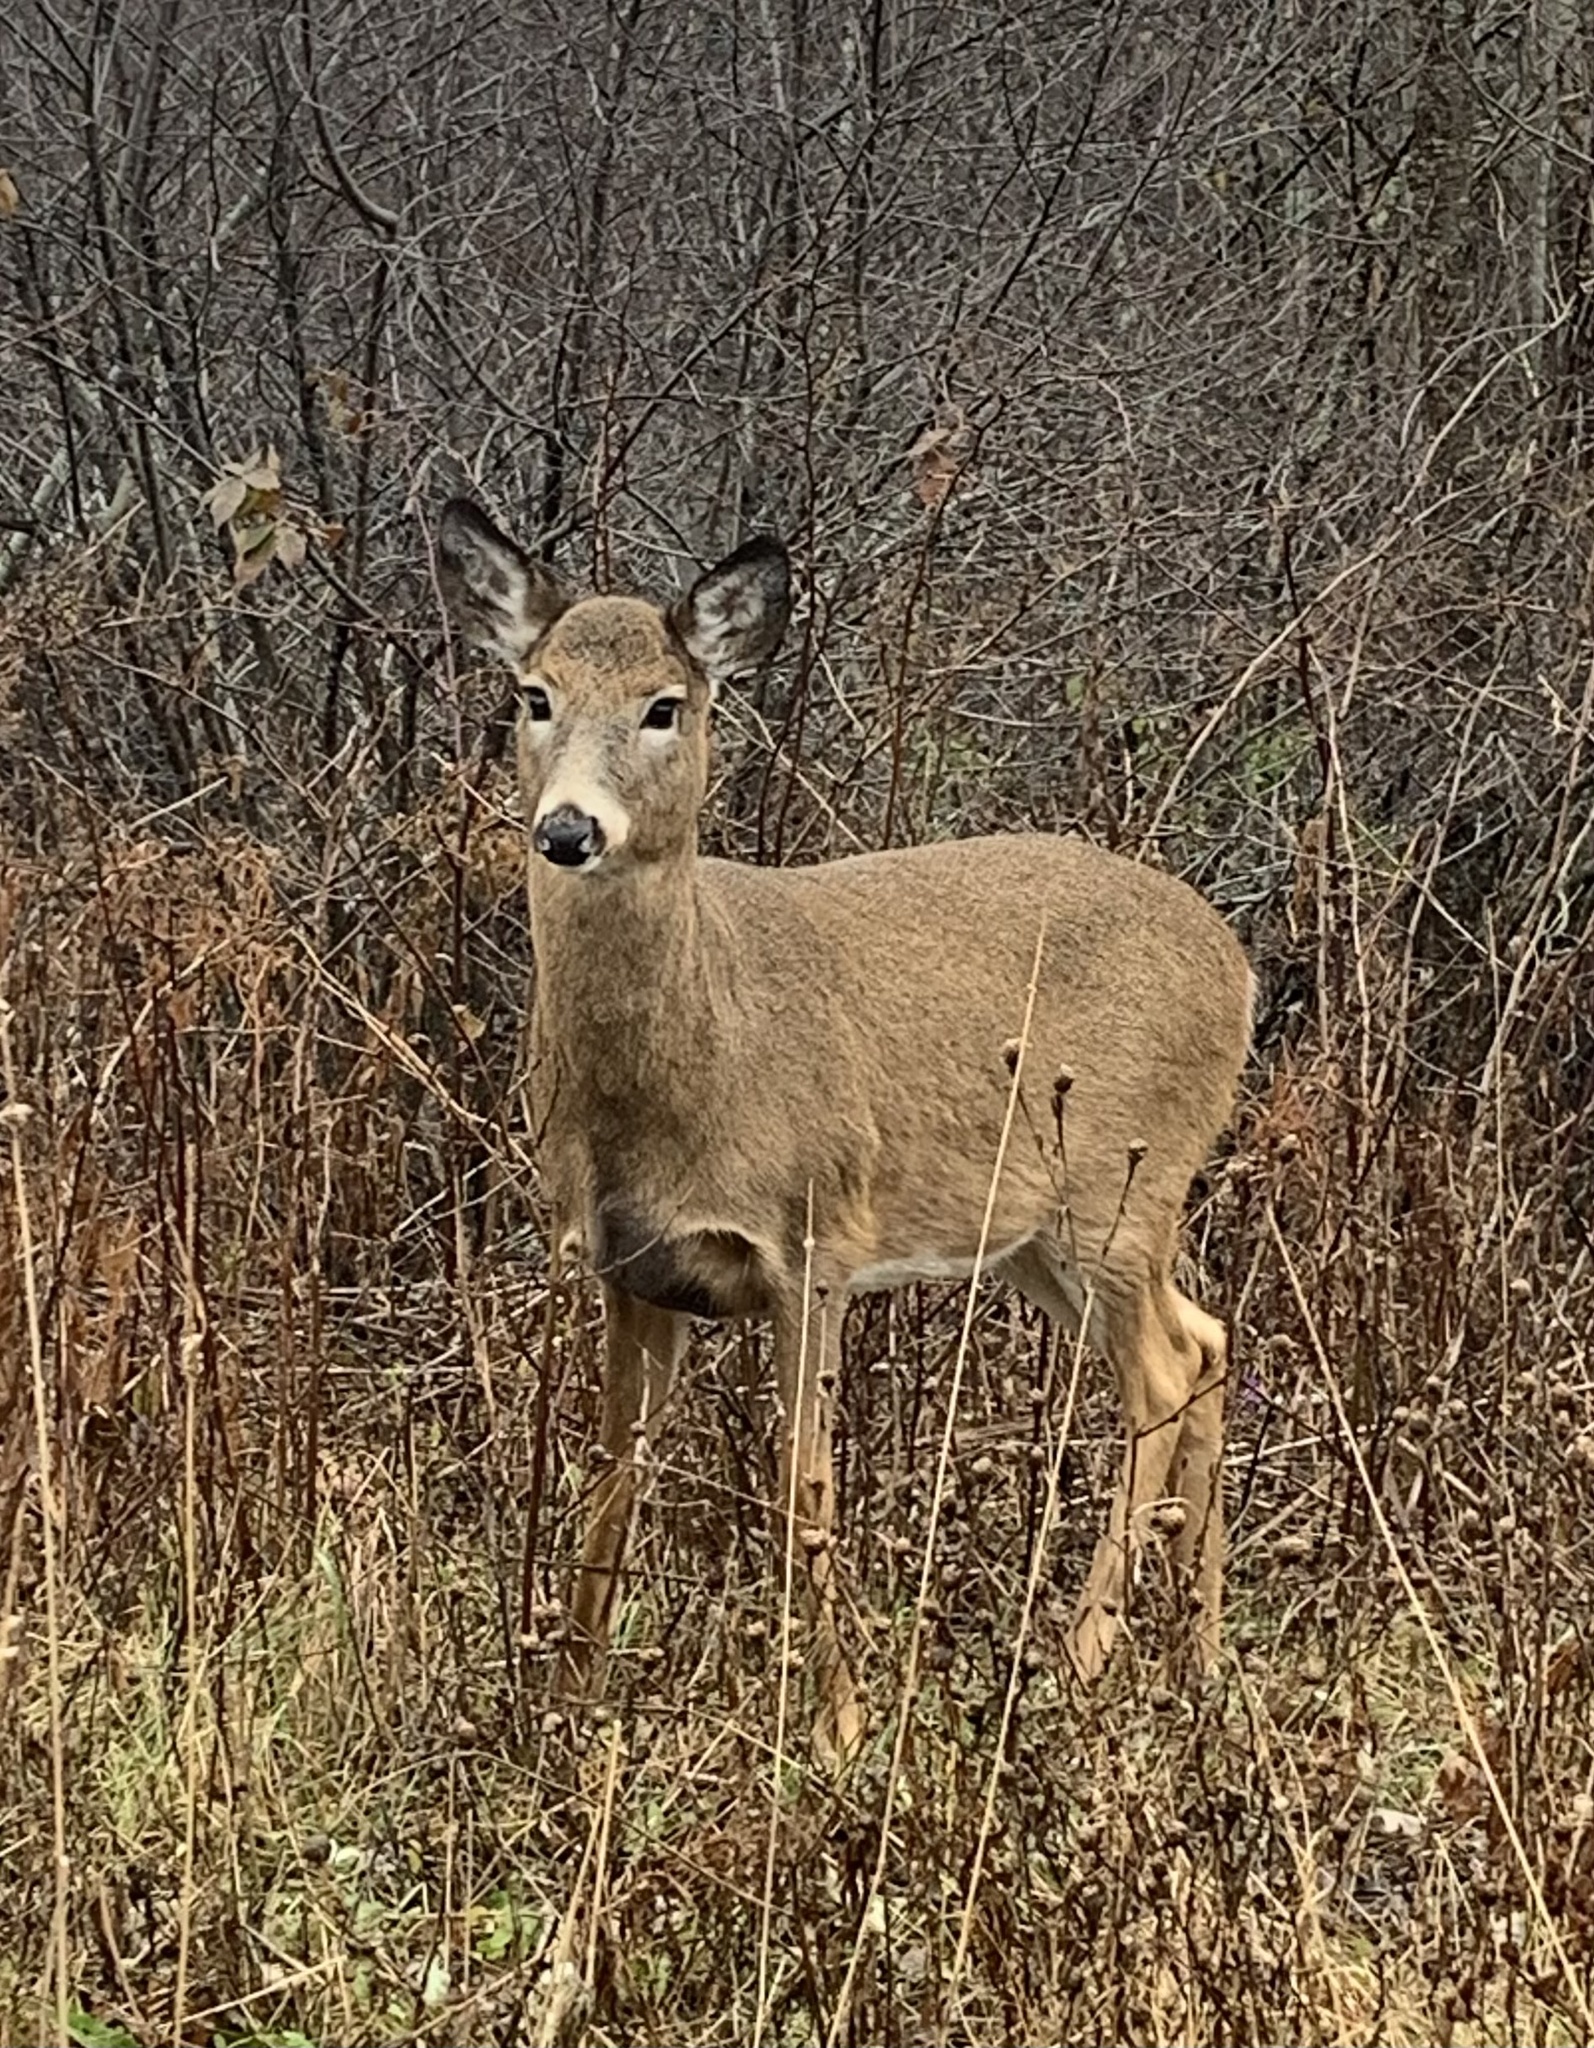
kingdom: Animalia
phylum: Chordata
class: Mammalia
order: Artiodactyla
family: Cervidae
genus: Odocoileus
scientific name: Odocoileus virginianus
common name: White-tailed deer
